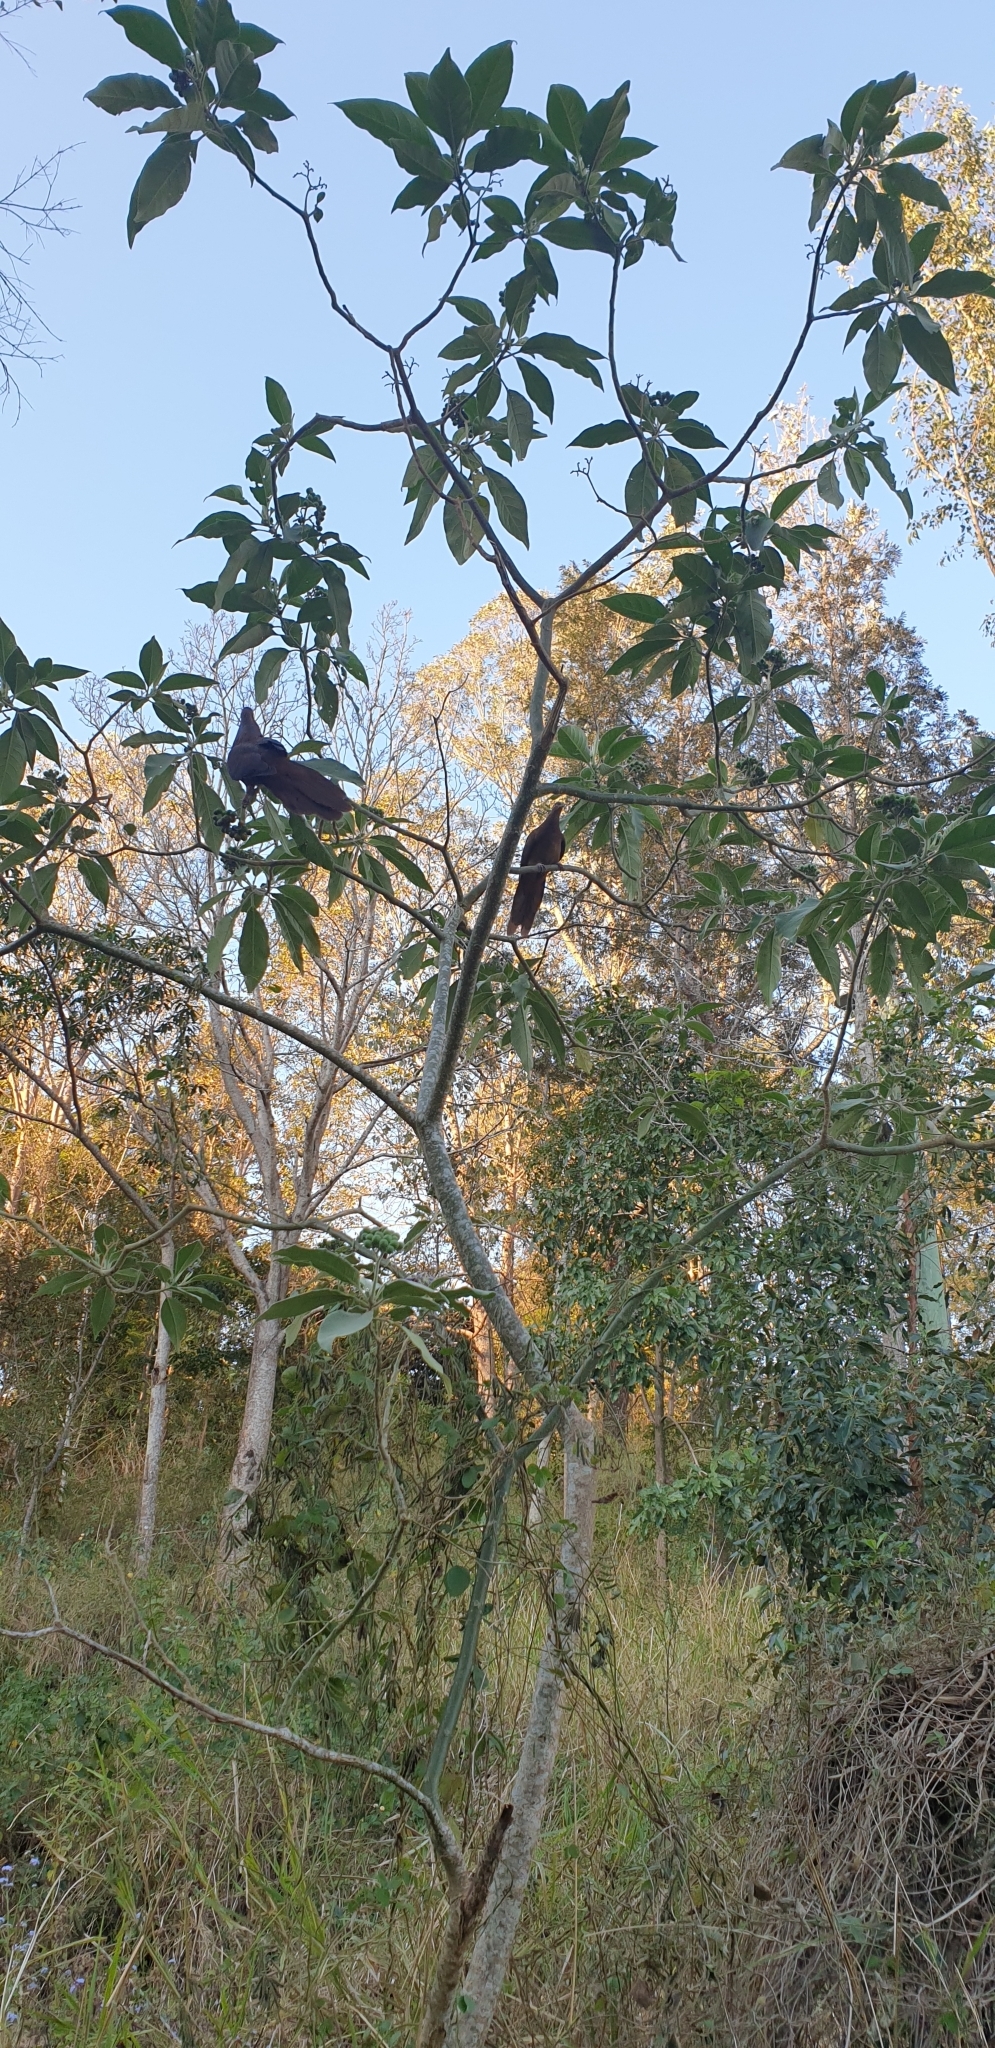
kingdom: Animalia
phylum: Chordata
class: Aves
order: Columbiformes
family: Columbidae
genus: Macropygia
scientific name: Macropygia phasianella
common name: Brown cuckoo-dove
